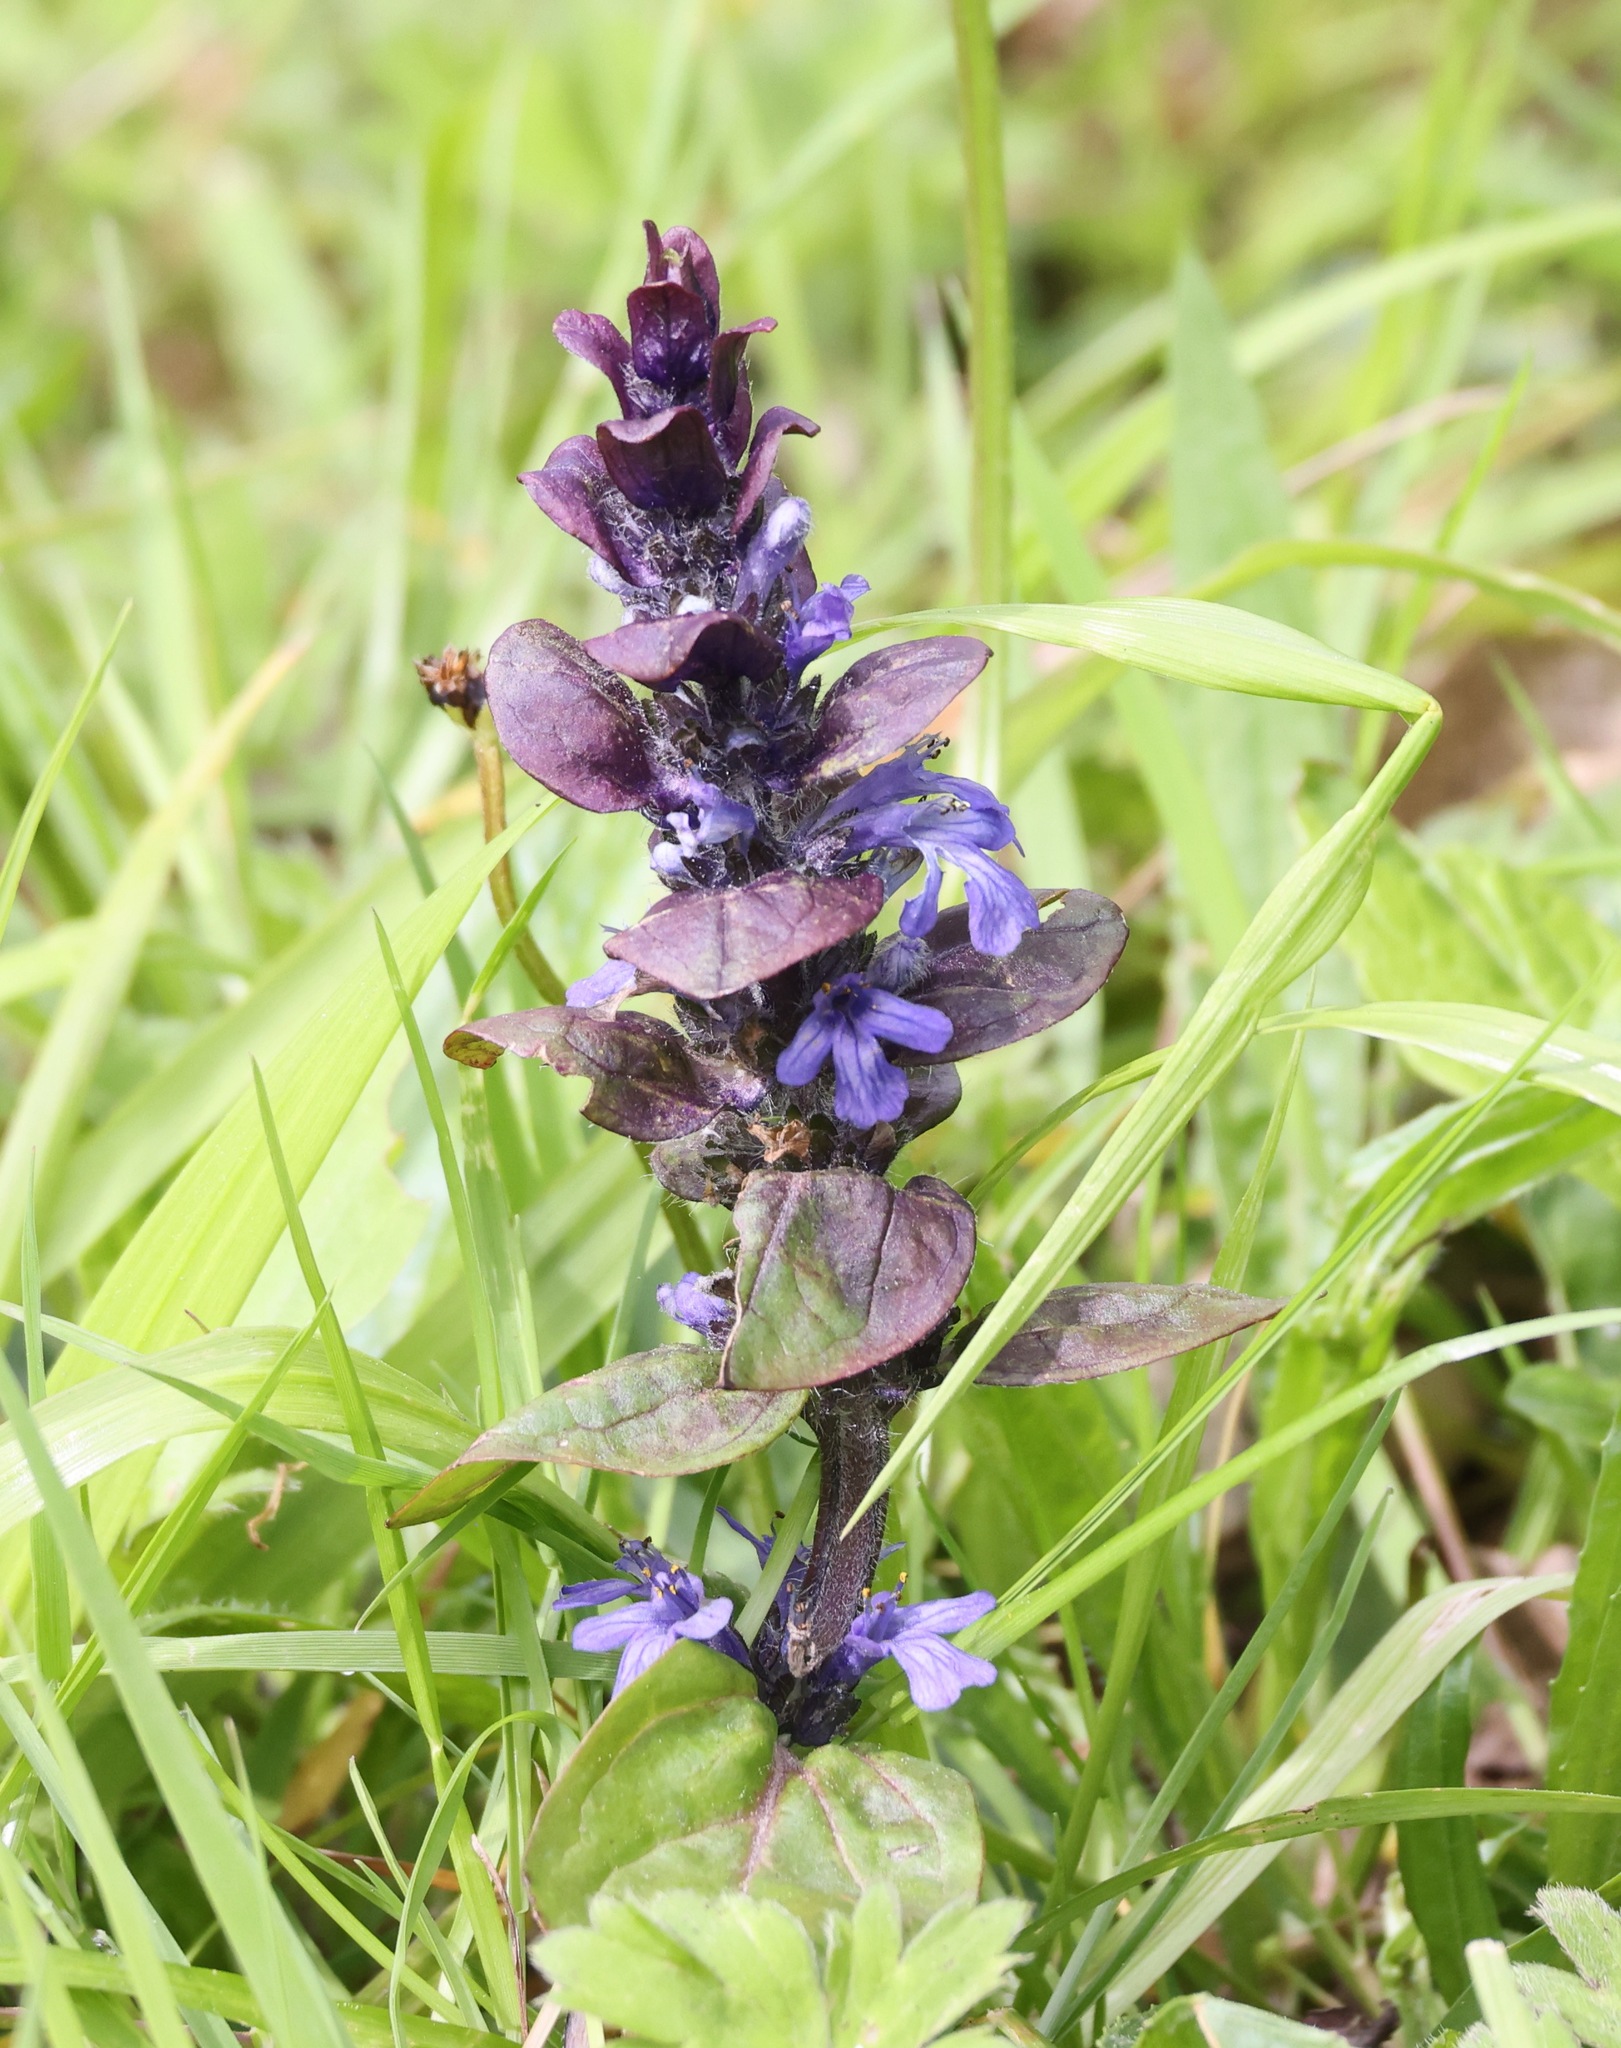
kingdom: Plantae
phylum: Tracheophyta
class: Magnoliopsida
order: Lamiales
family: Lamiaceae
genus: Ajuga
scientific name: Ajuga reptans
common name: Bugle
